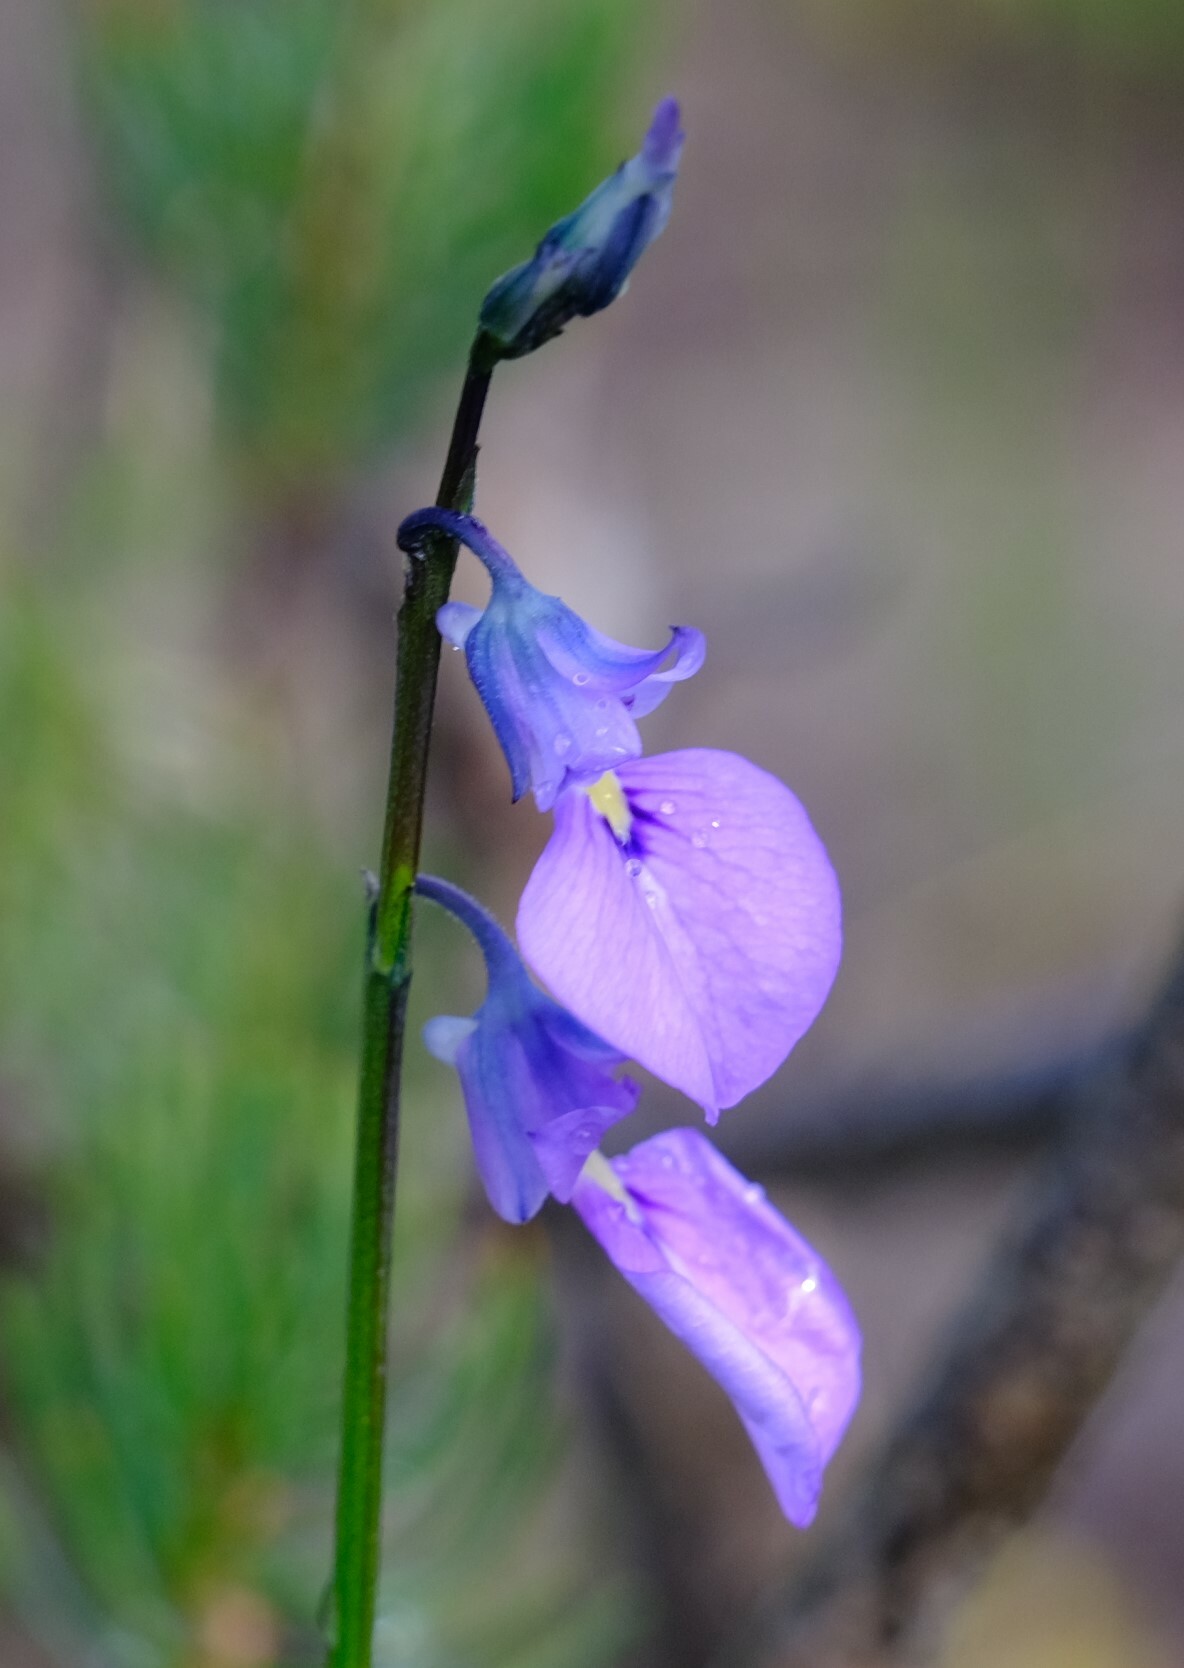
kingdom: Plantae
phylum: Tracheophyta
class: Magnoliopsida
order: Malpighiales
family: Violaceae
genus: Pigea
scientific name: Pigea calycina
